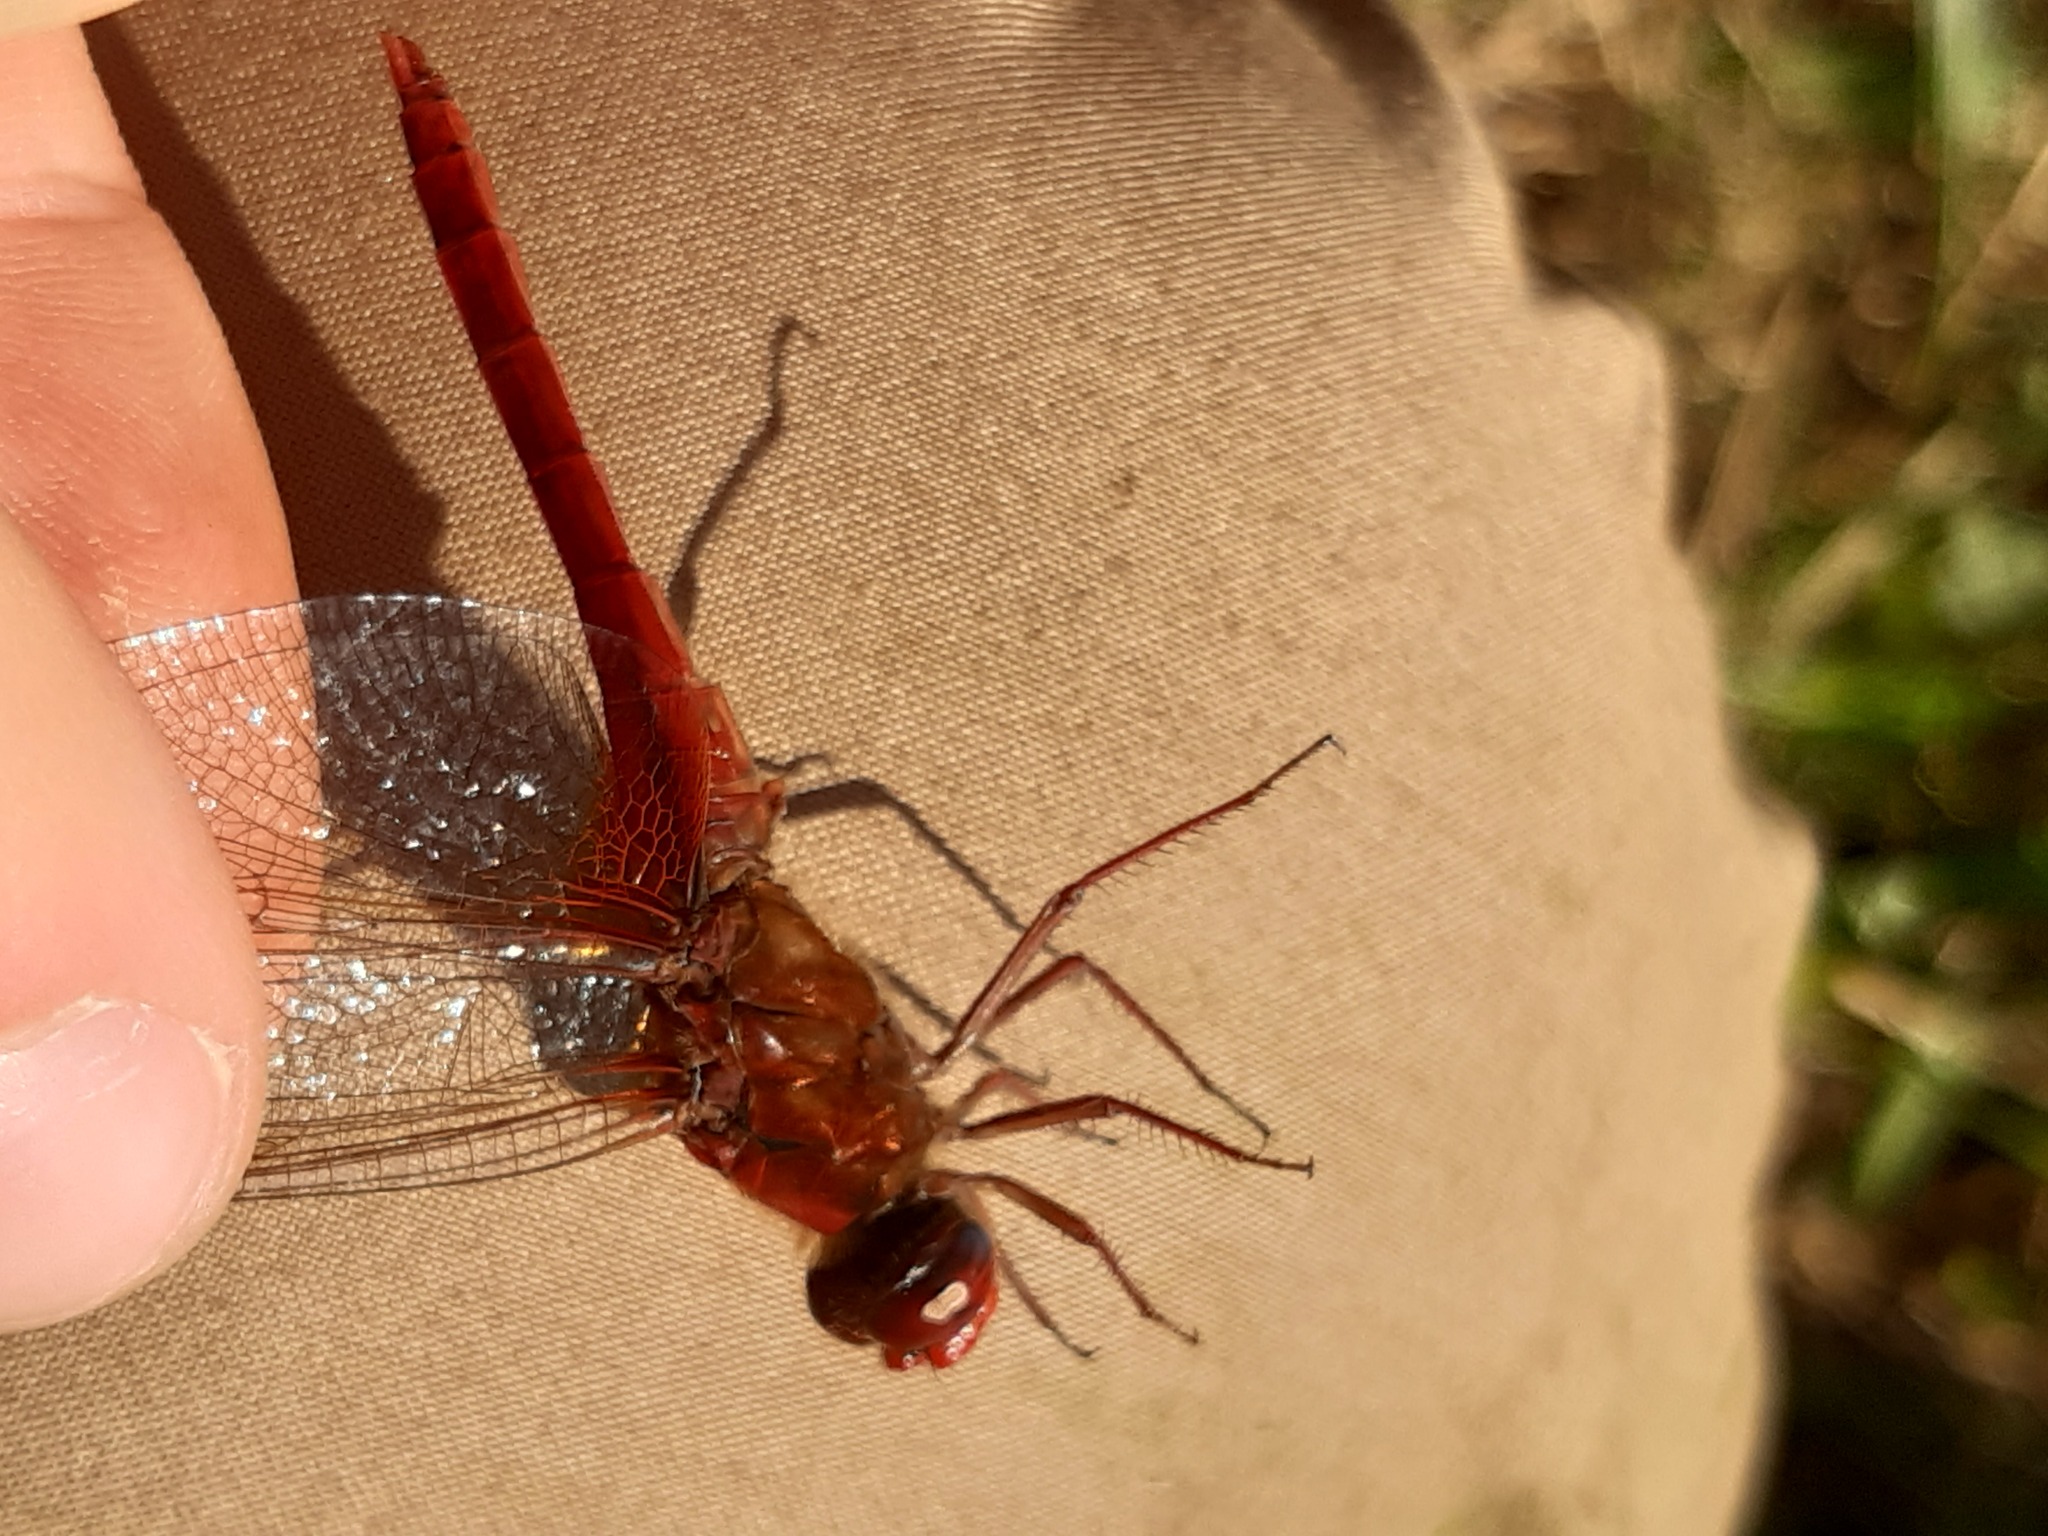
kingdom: Animalia
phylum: Arthropoda
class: Insecta
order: Odonata
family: Libellulidae
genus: Crocothemis
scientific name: Crocothemis erythraea
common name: Scarlet dragonfly
